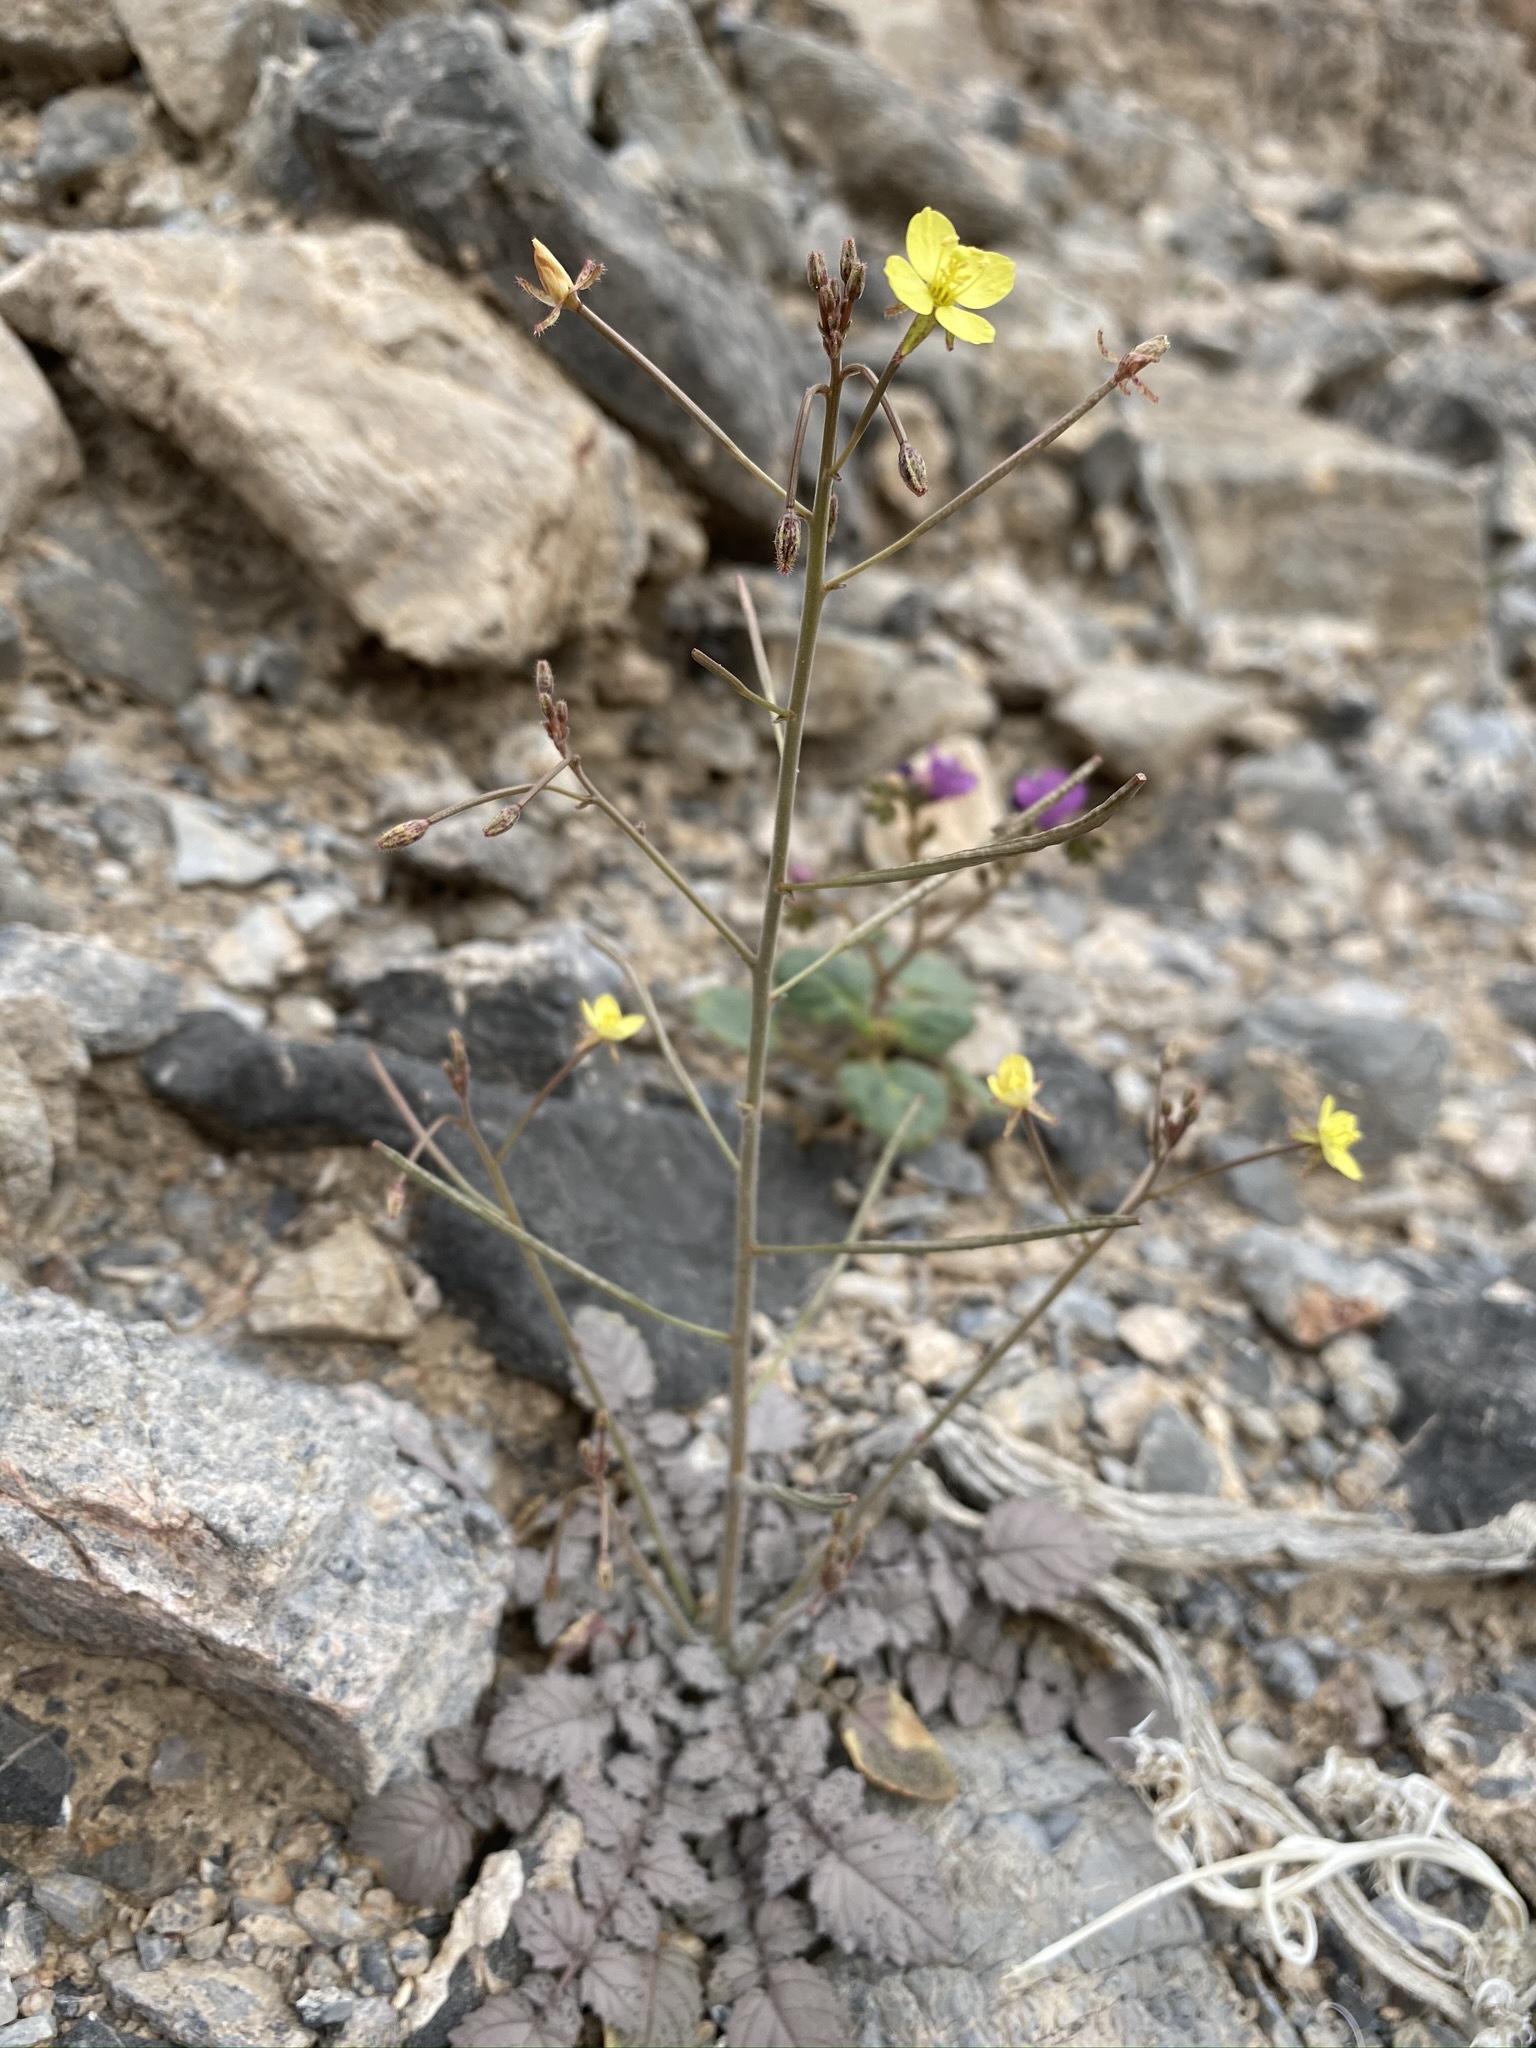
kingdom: Plantae
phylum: Tracheophyta
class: Magnoliopsida
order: Myrtales
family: Onagraceae
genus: Chylismia
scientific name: Chylismia walkeri
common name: Walker's suncup
